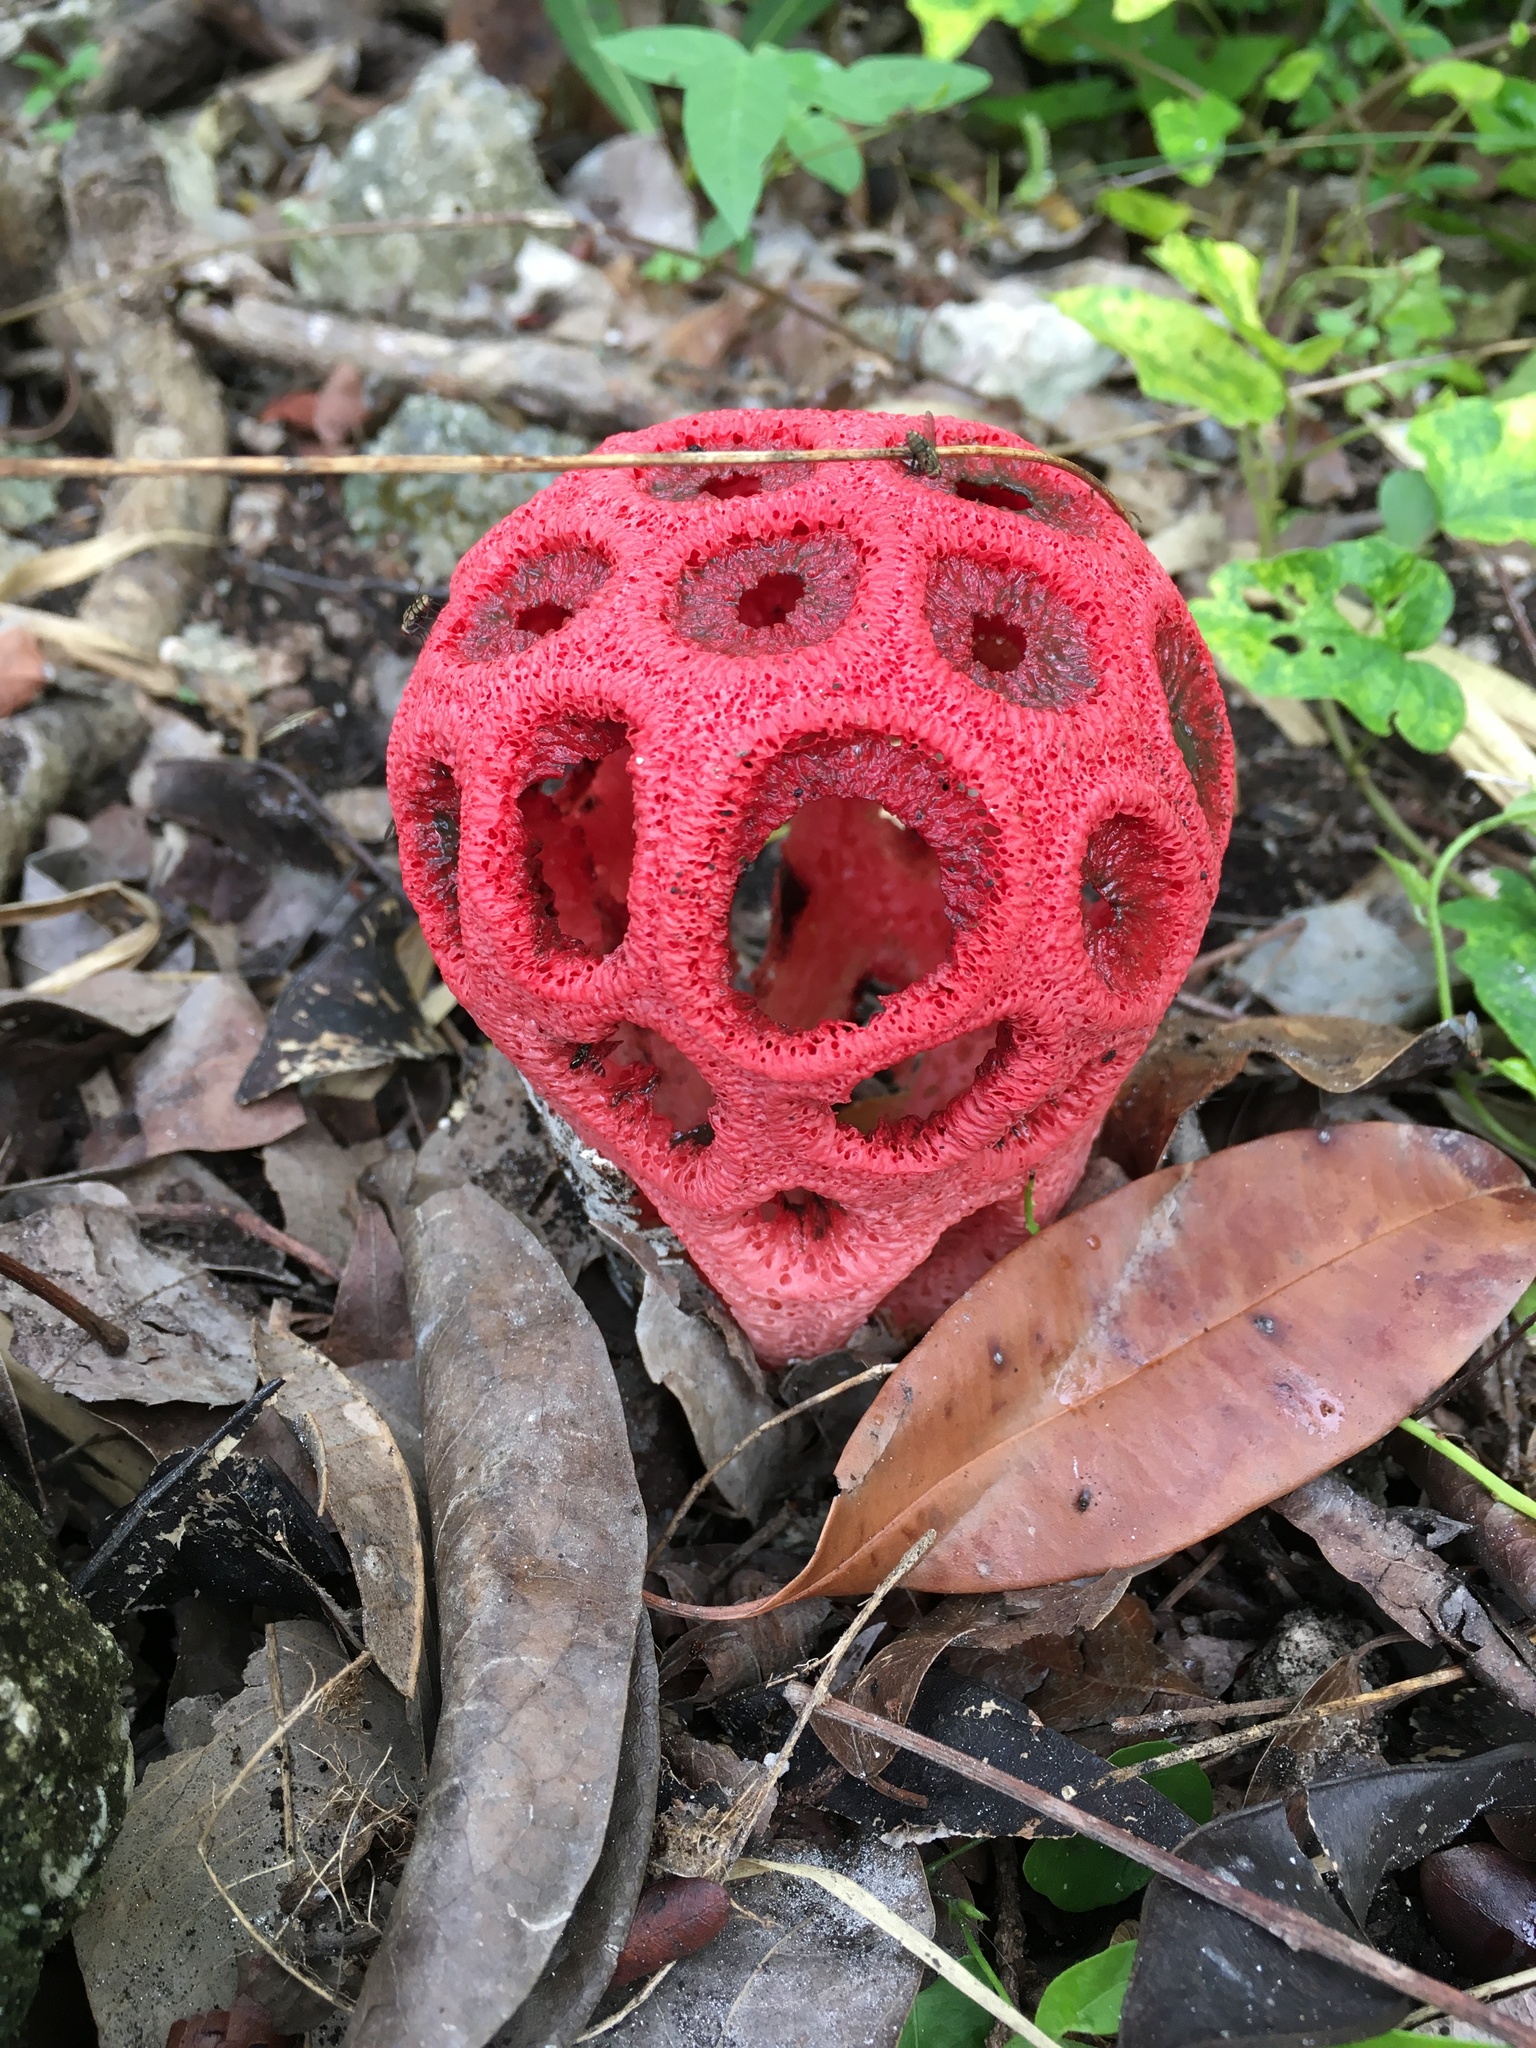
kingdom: Fungi
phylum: Basidiomycota
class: Agaricomycetes
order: Phallales
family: Phallaceae
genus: Clathrus
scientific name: Clathrus crispatus
